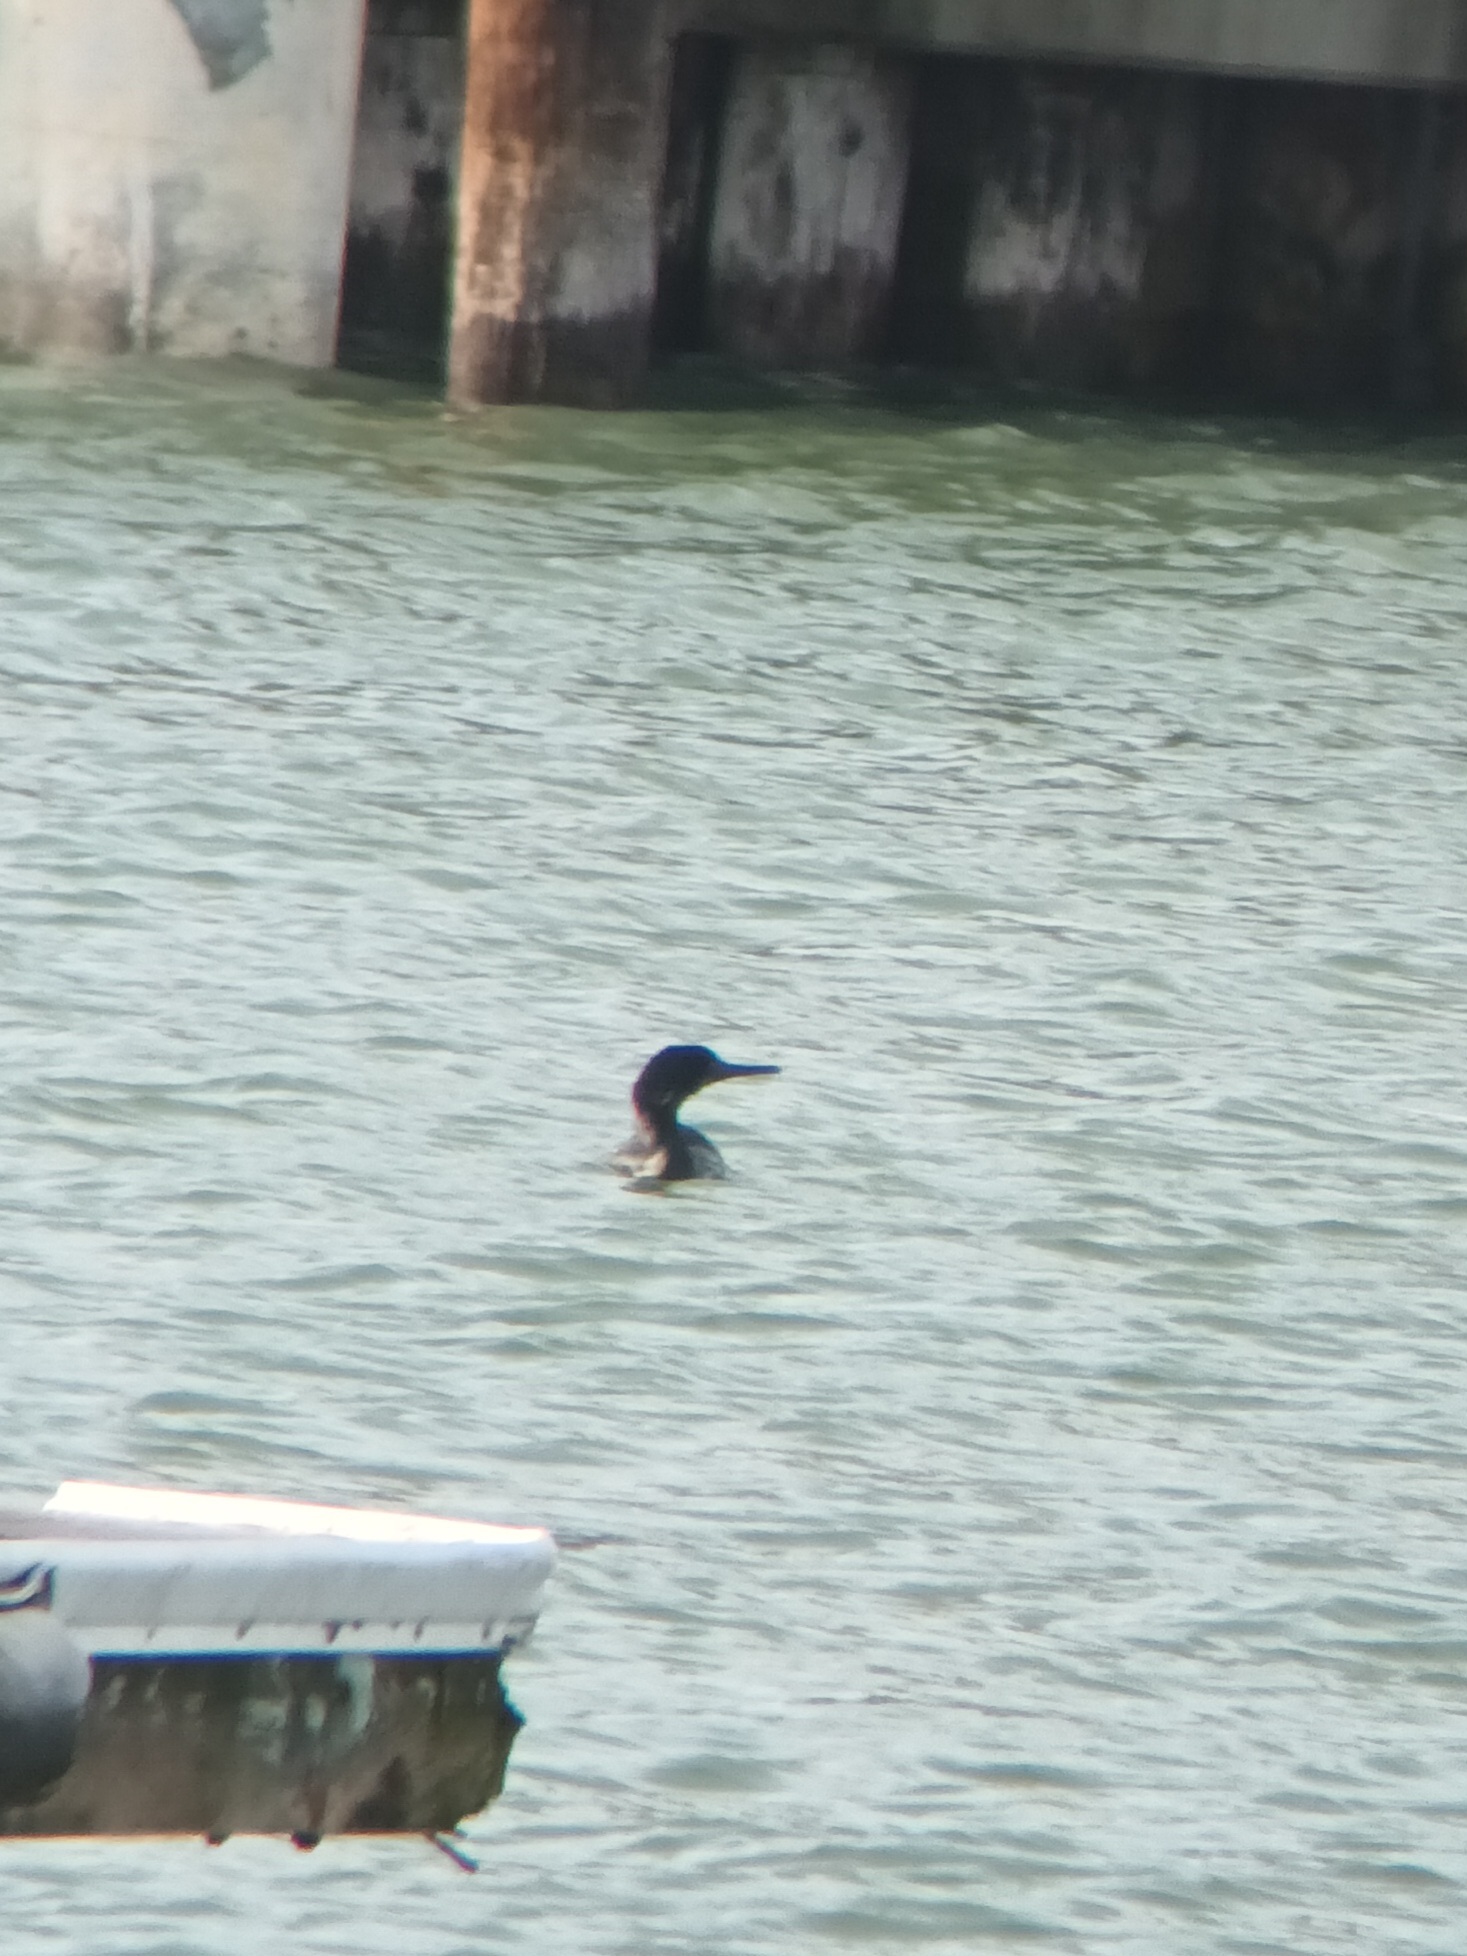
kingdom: Animalia
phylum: Chordata
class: Aves
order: Suliformes
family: Phalacrocoracidae
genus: Urile
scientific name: Urile penicillatus
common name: Brandt's cormorant
